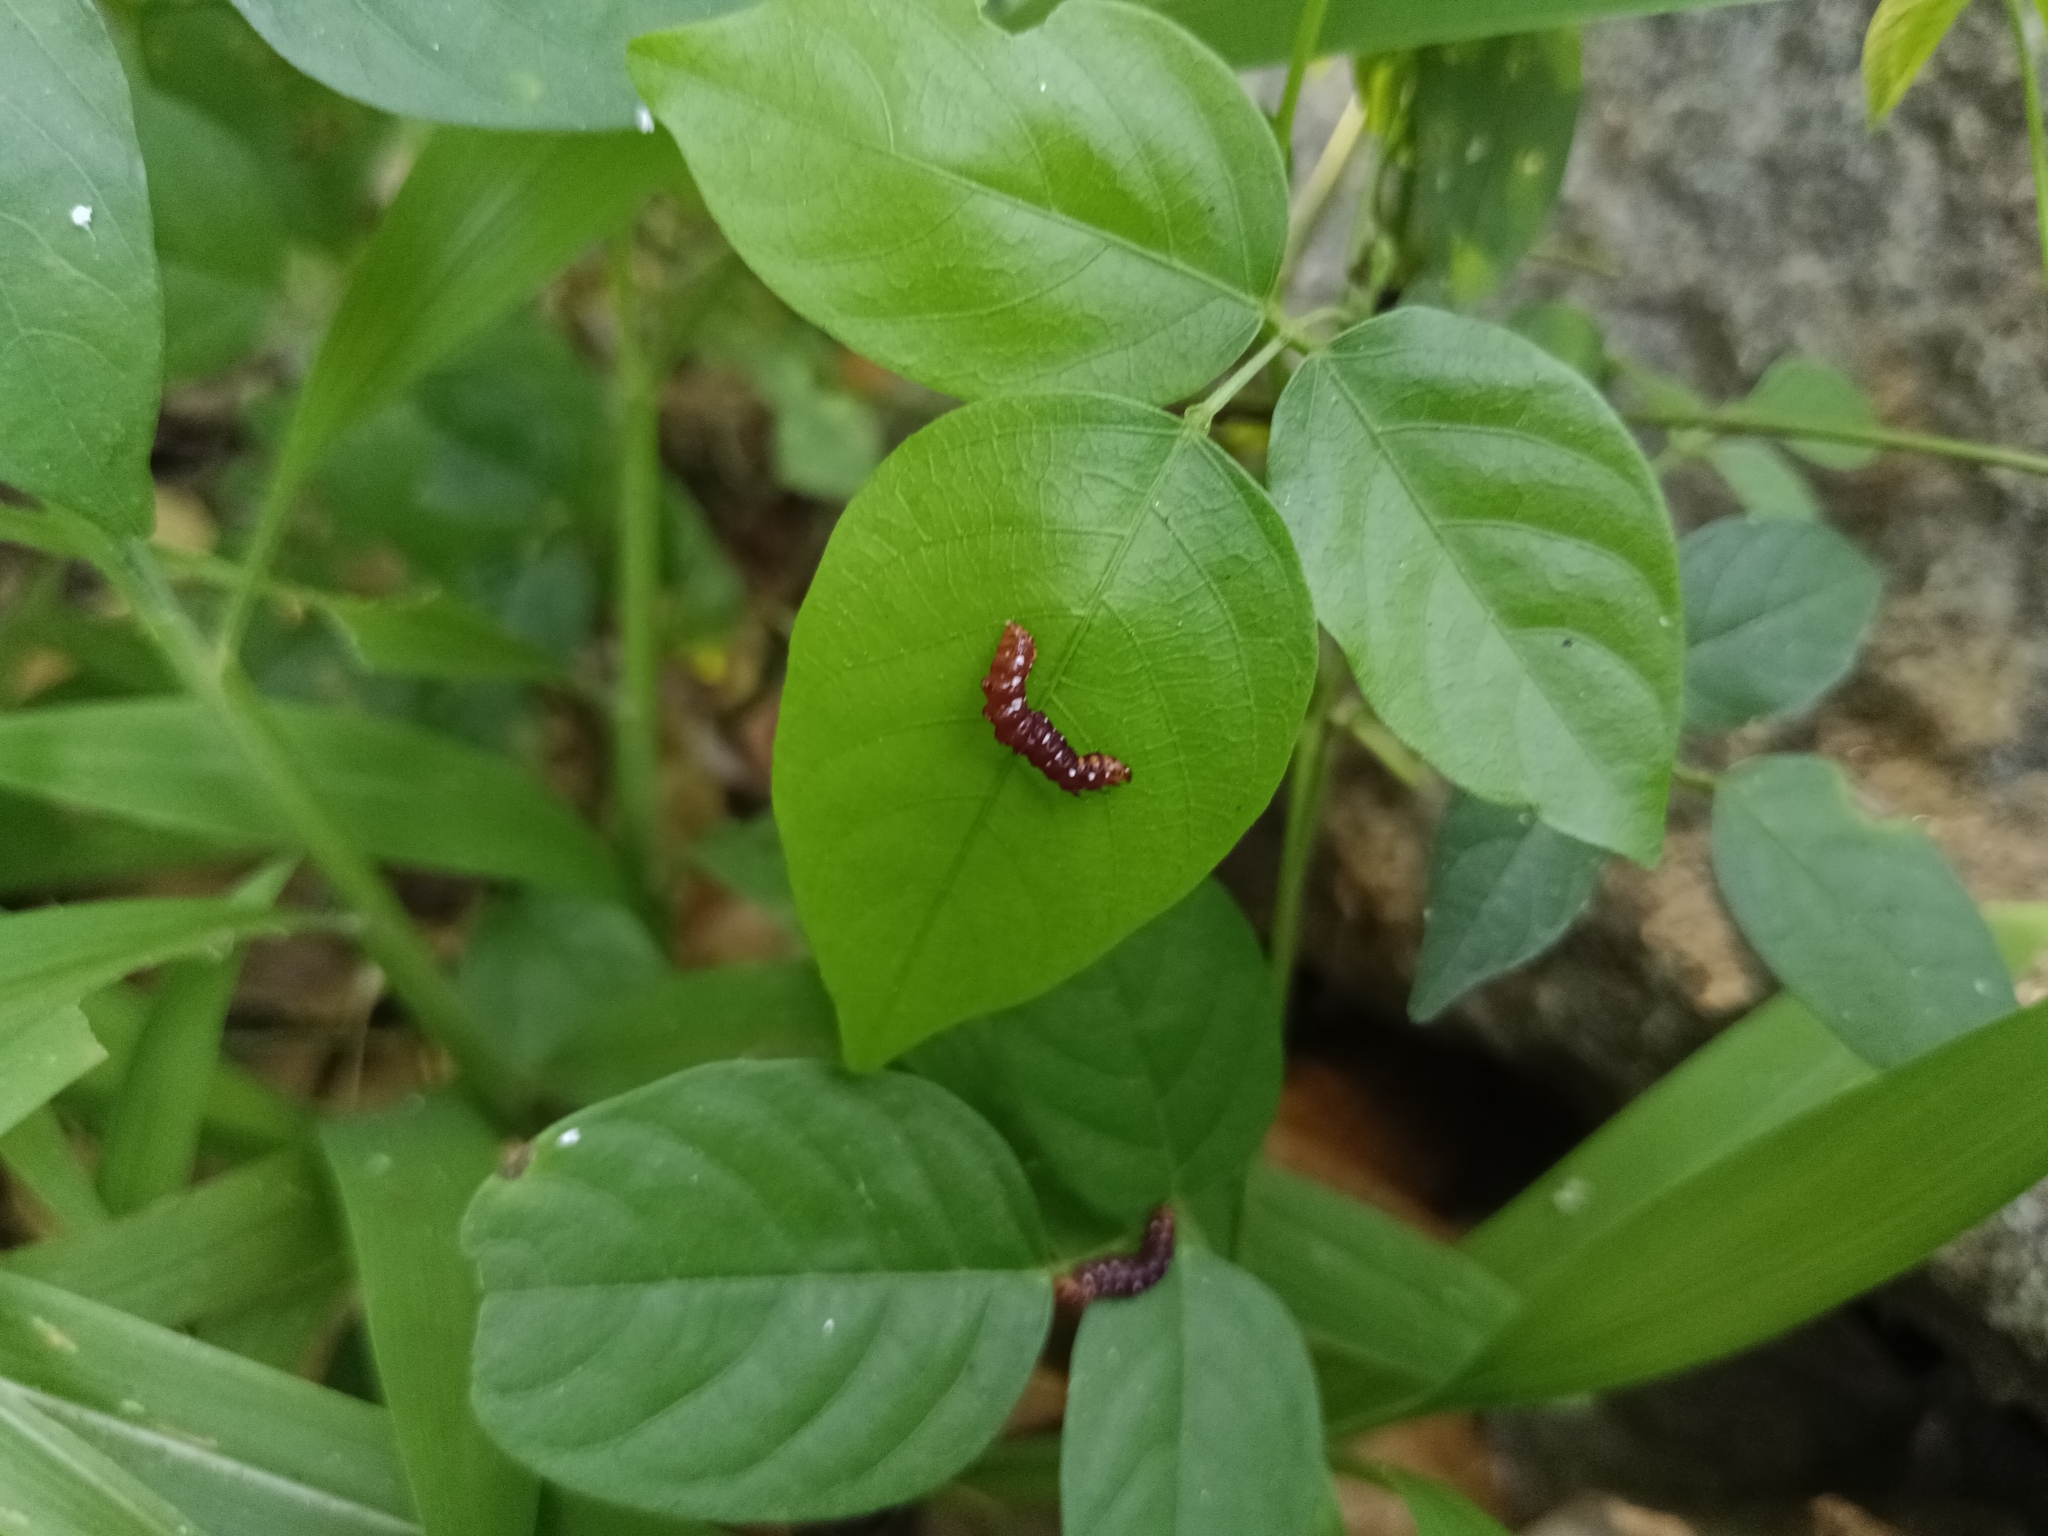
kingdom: Animalia
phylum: Arthropoda
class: Insecta
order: Lepidoptera
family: Noctuidae
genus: Polytela
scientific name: Polytela gloriosae
